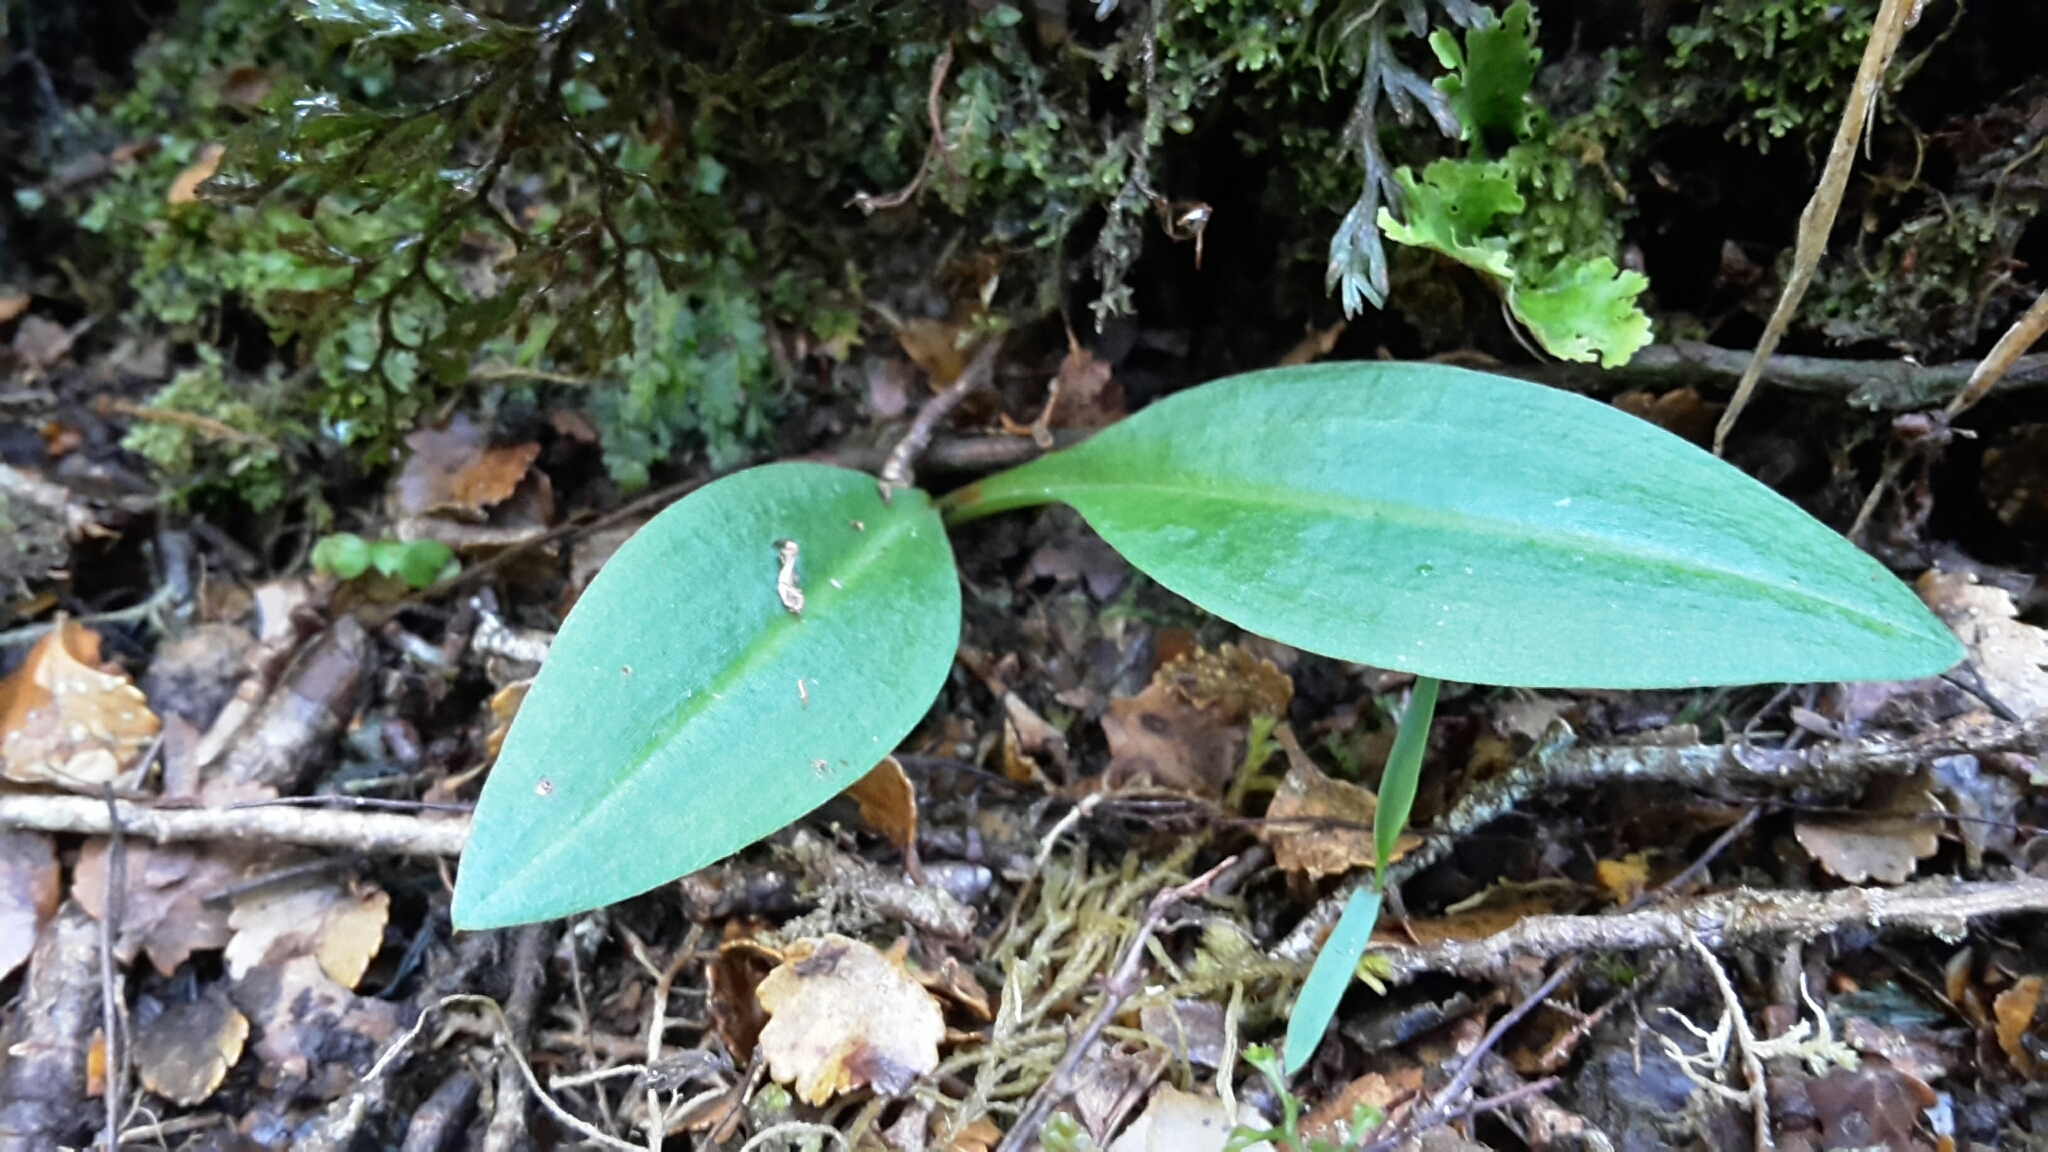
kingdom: Plantae
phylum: Tracheophyta
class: Liliopsida
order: Asparagales
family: Orchidaceae
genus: Chiloglottis
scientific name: Chiloglottis cornuta
